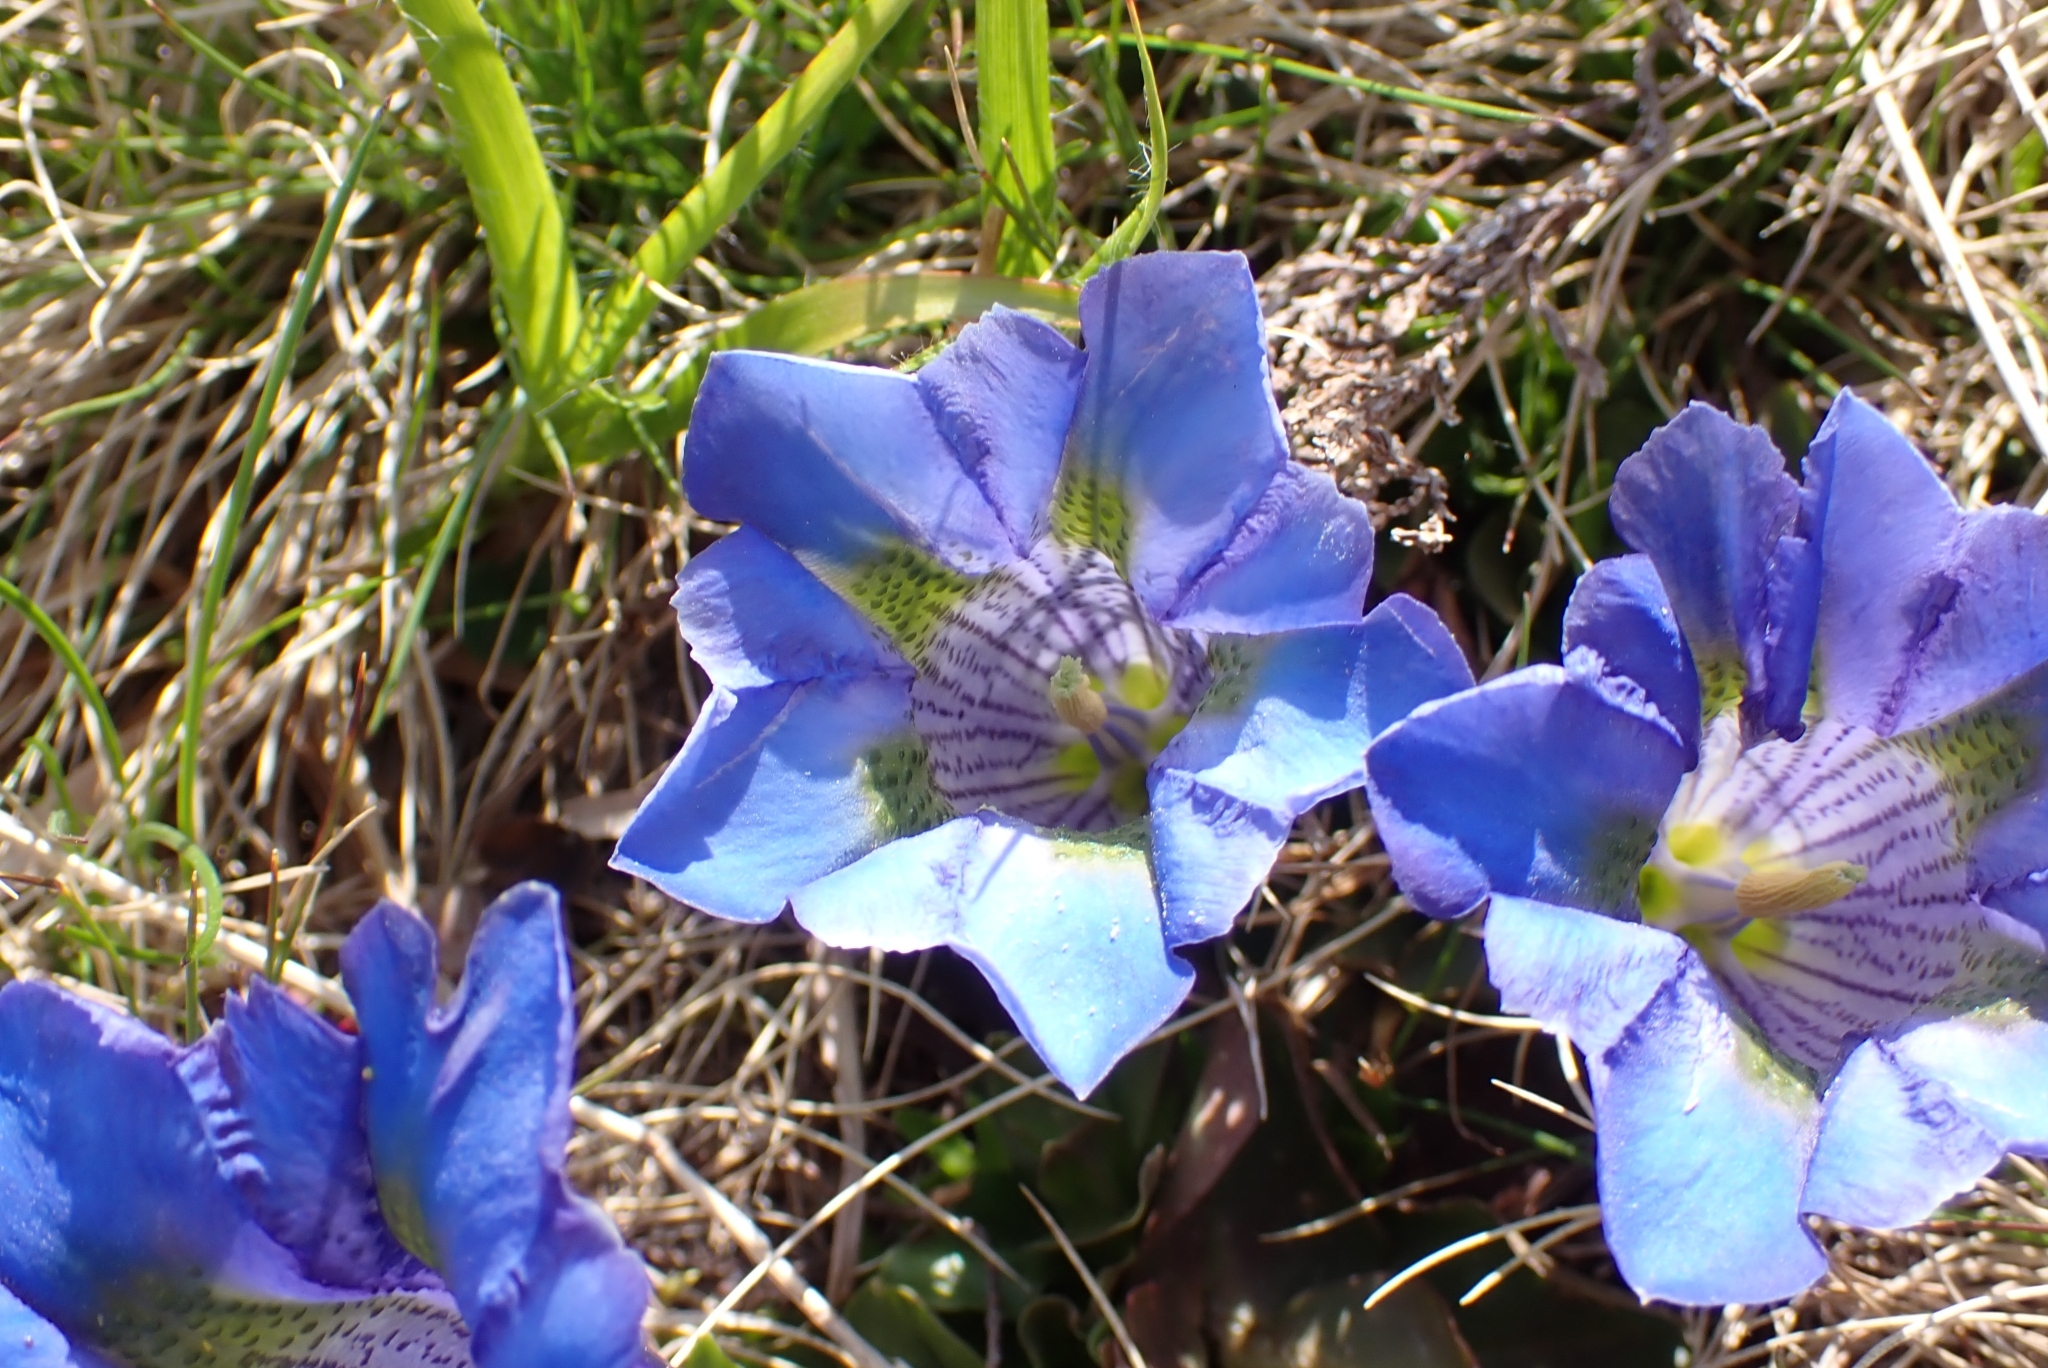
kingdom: Plantae
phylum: Tracheophyta
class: Magnoliopsida
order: Gentianales
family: Gentianaceae
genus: Gentiana
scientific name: Gentiana acaulis
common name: Trumpet gentian
